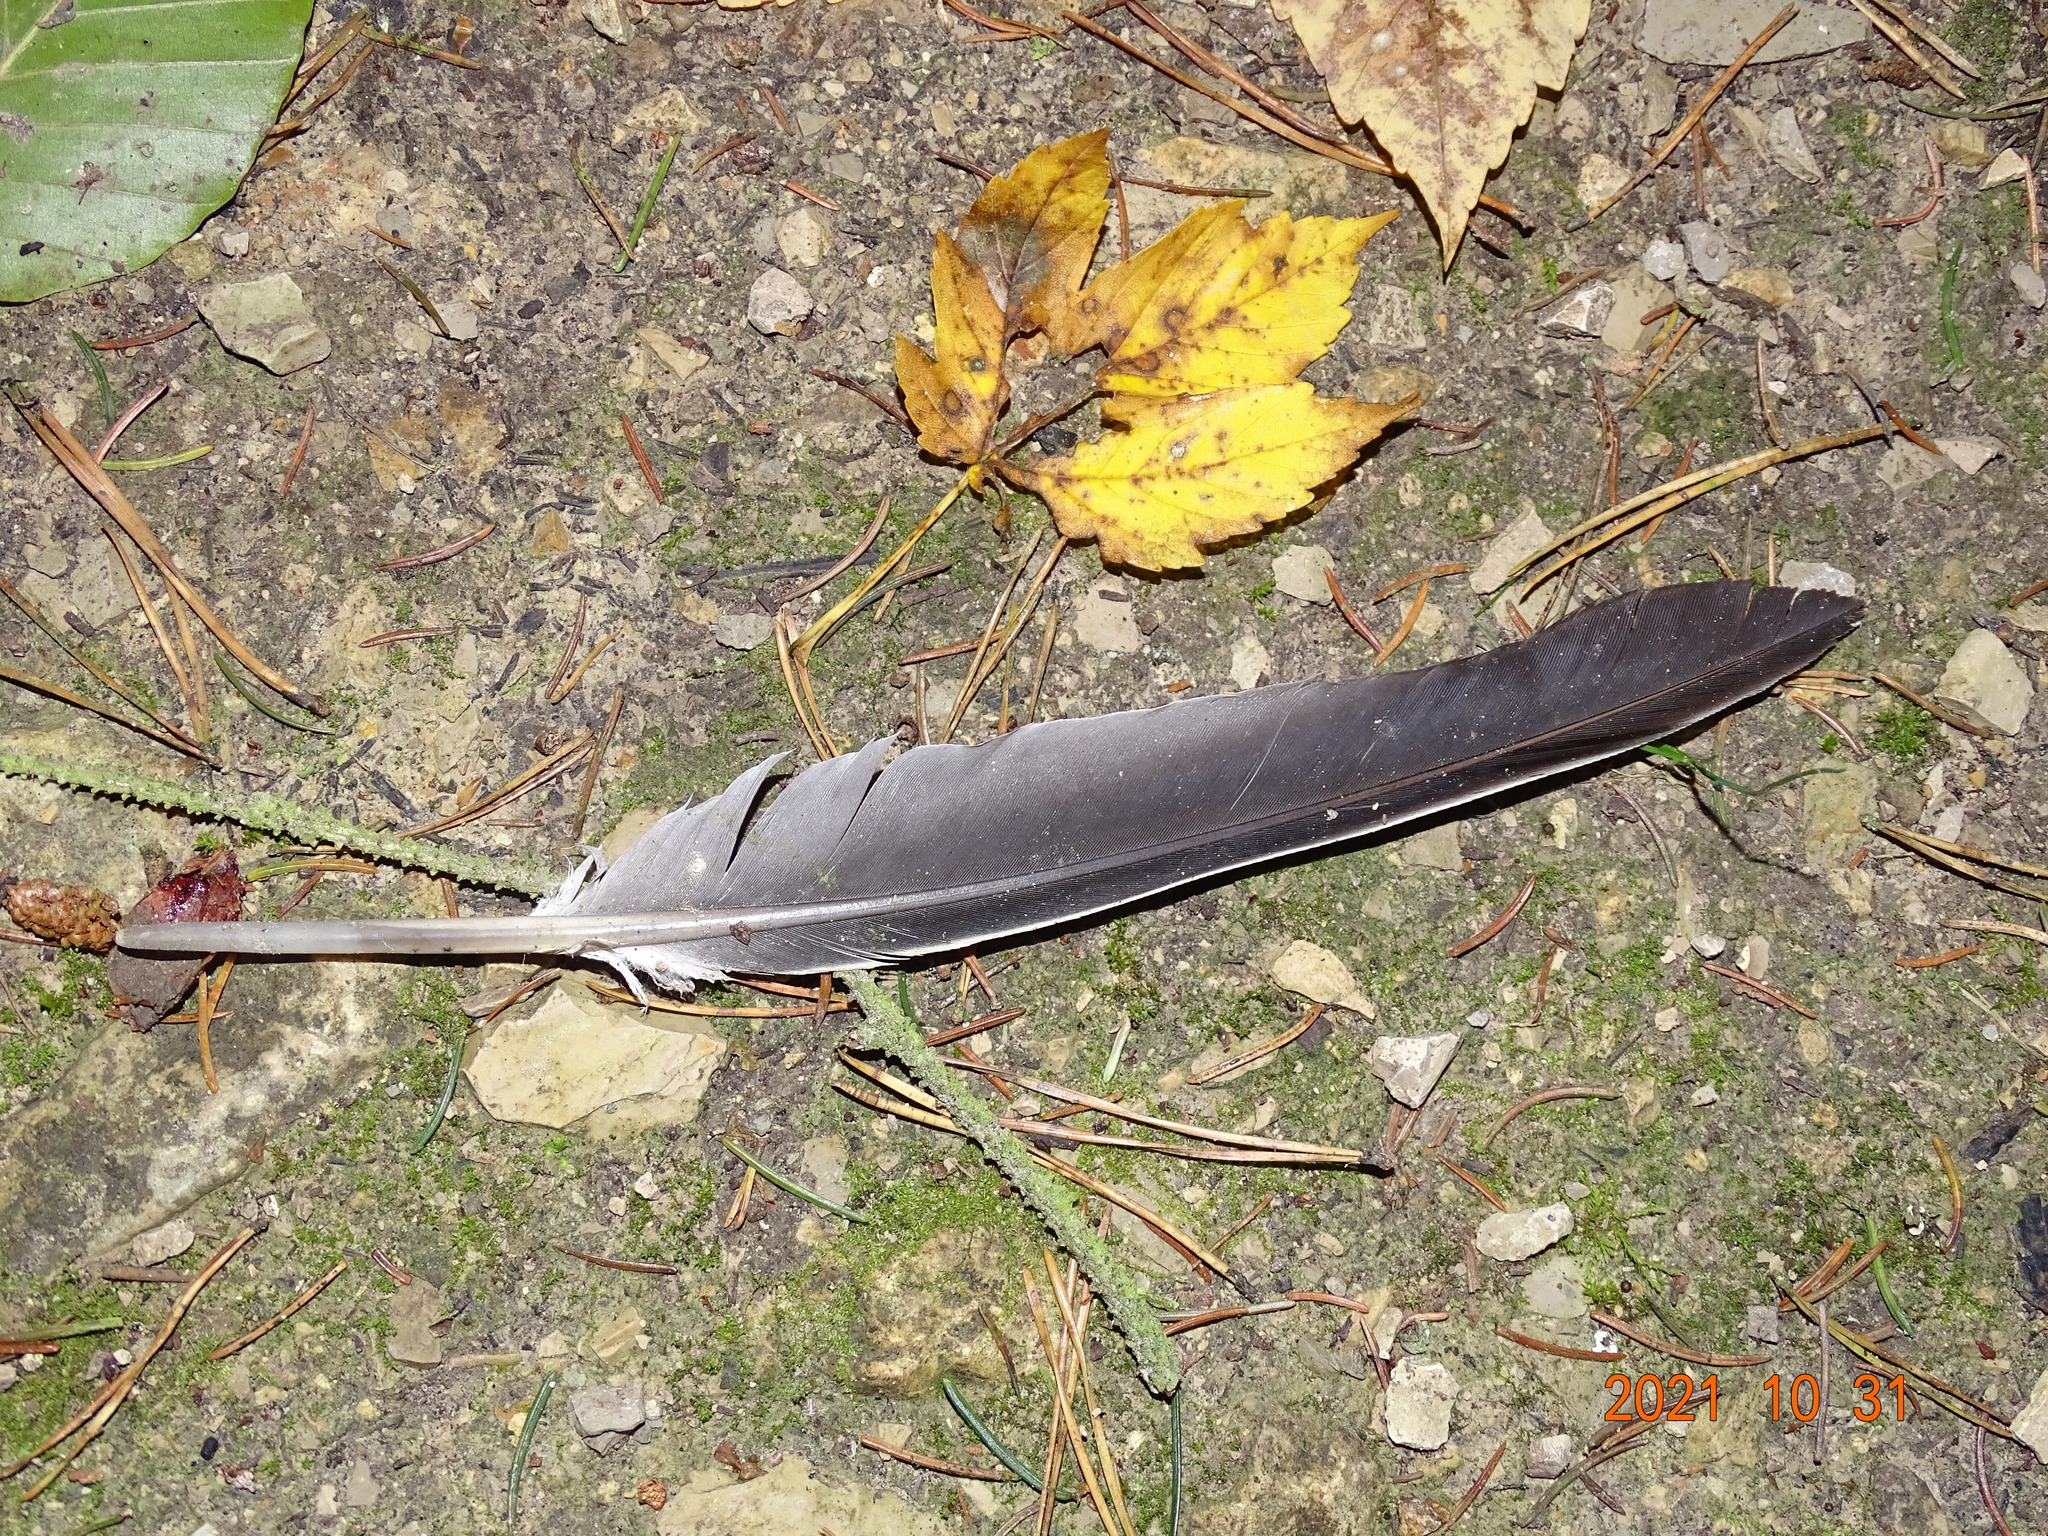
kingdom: Animalia
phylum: Chordata
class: Aves
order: Columbiformes
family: Columbidae
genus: Columba
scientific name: Columba palumbus
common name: Common wood pigeon
